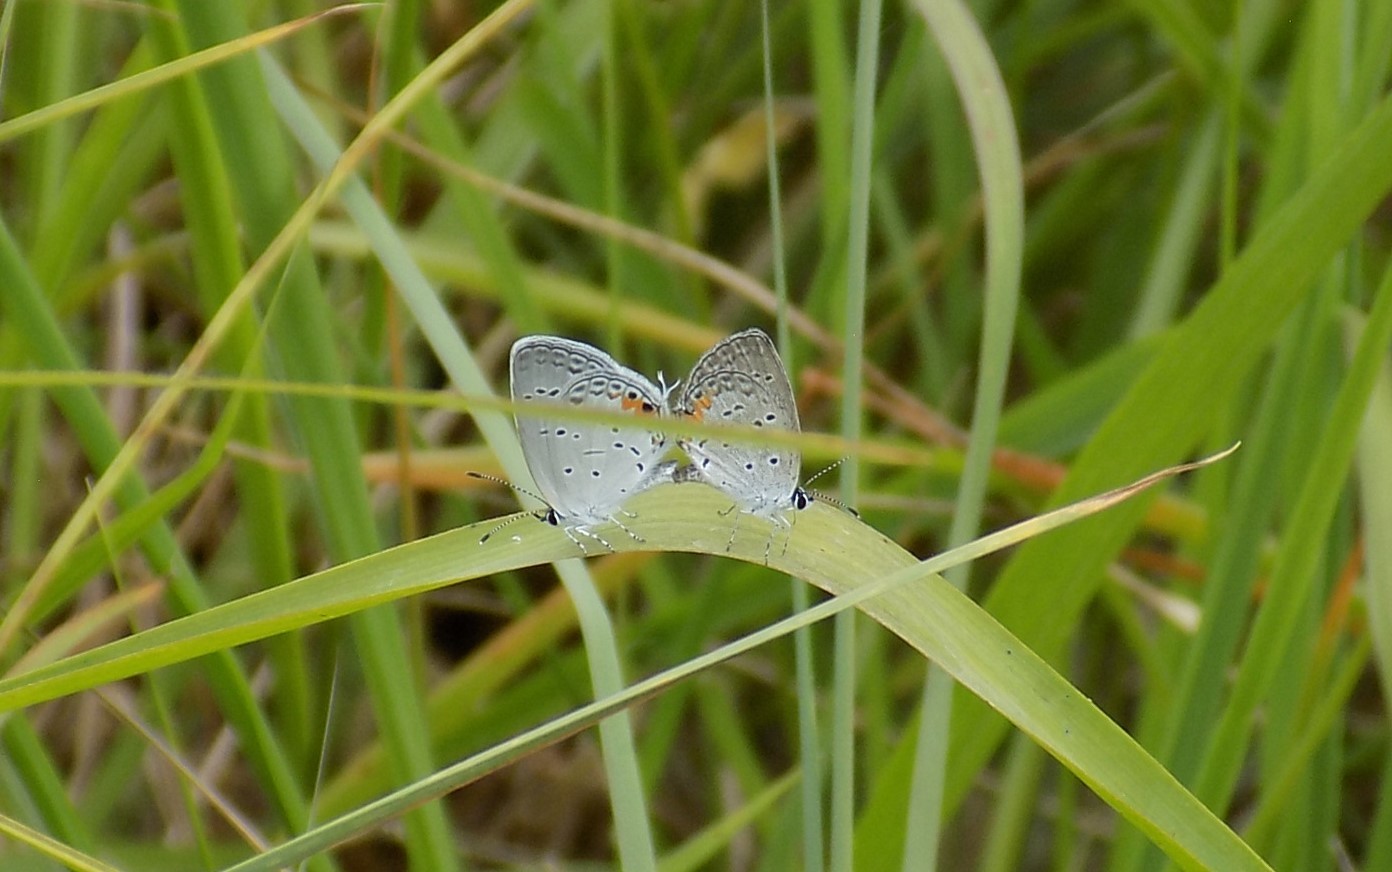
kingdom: Animalia
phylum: Arthropoda
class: Insecta
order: Lepidoptera
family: Lycaenidae
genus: Elkalyce
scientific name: Elkalyce comyntas
